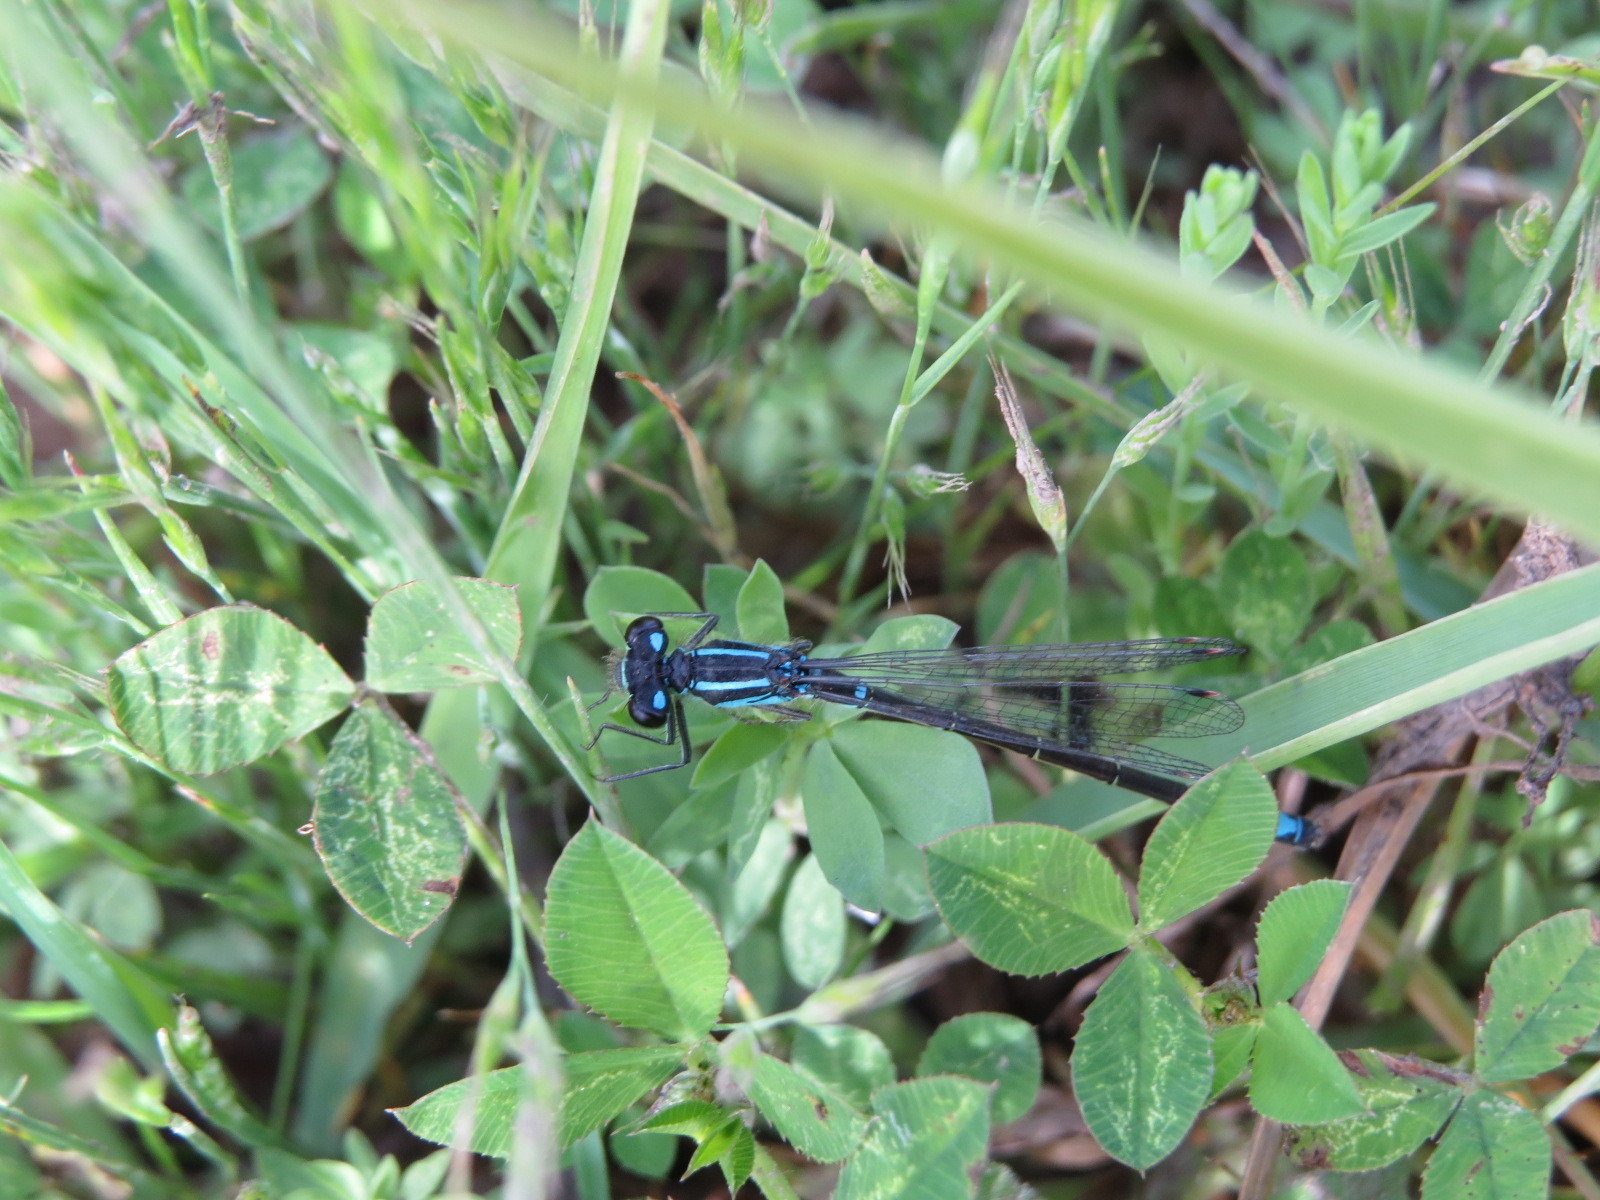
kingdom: Animalia
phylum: Arthropoda
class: Insecta
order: Odonata
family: Coenagrionidae
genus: Ischnura
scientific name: Ischnura erratica
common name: Swift forktail
